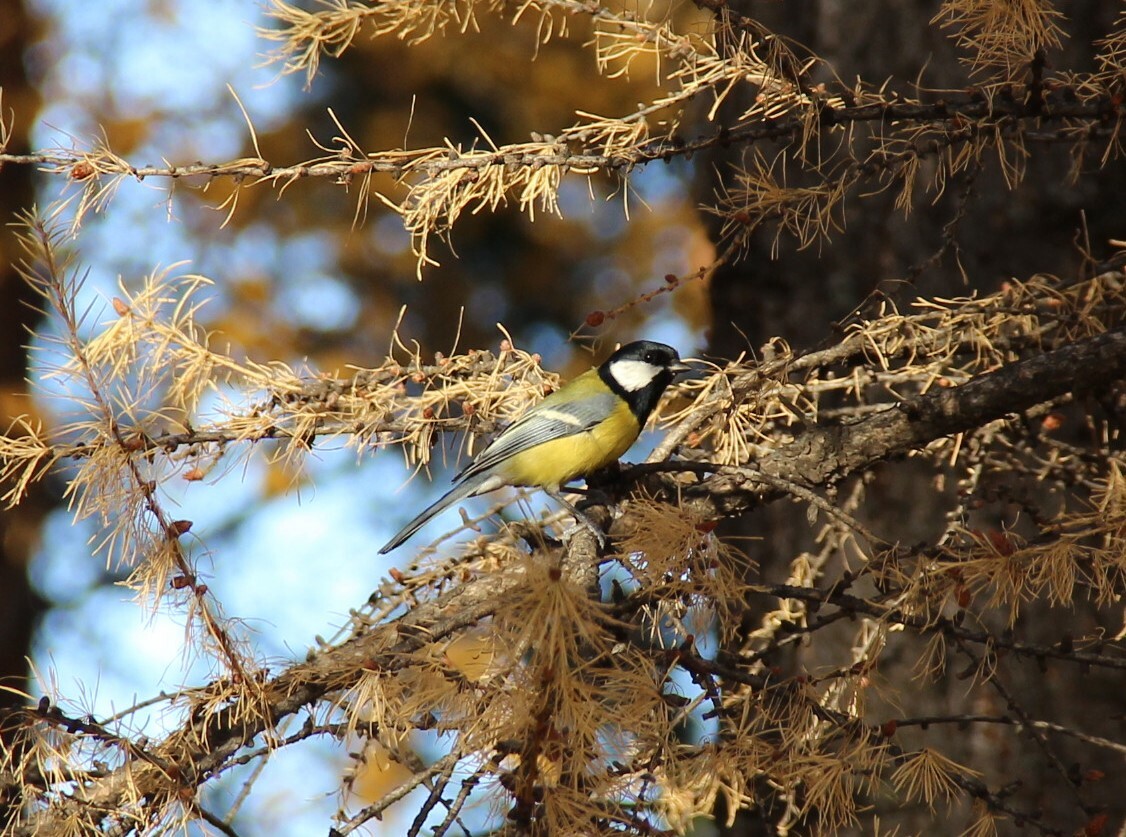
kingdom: Animalia
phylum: Chordata
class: Aves
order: Passeriformes
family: Paridae
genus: Parus
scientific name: Parus major
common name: Great tit
